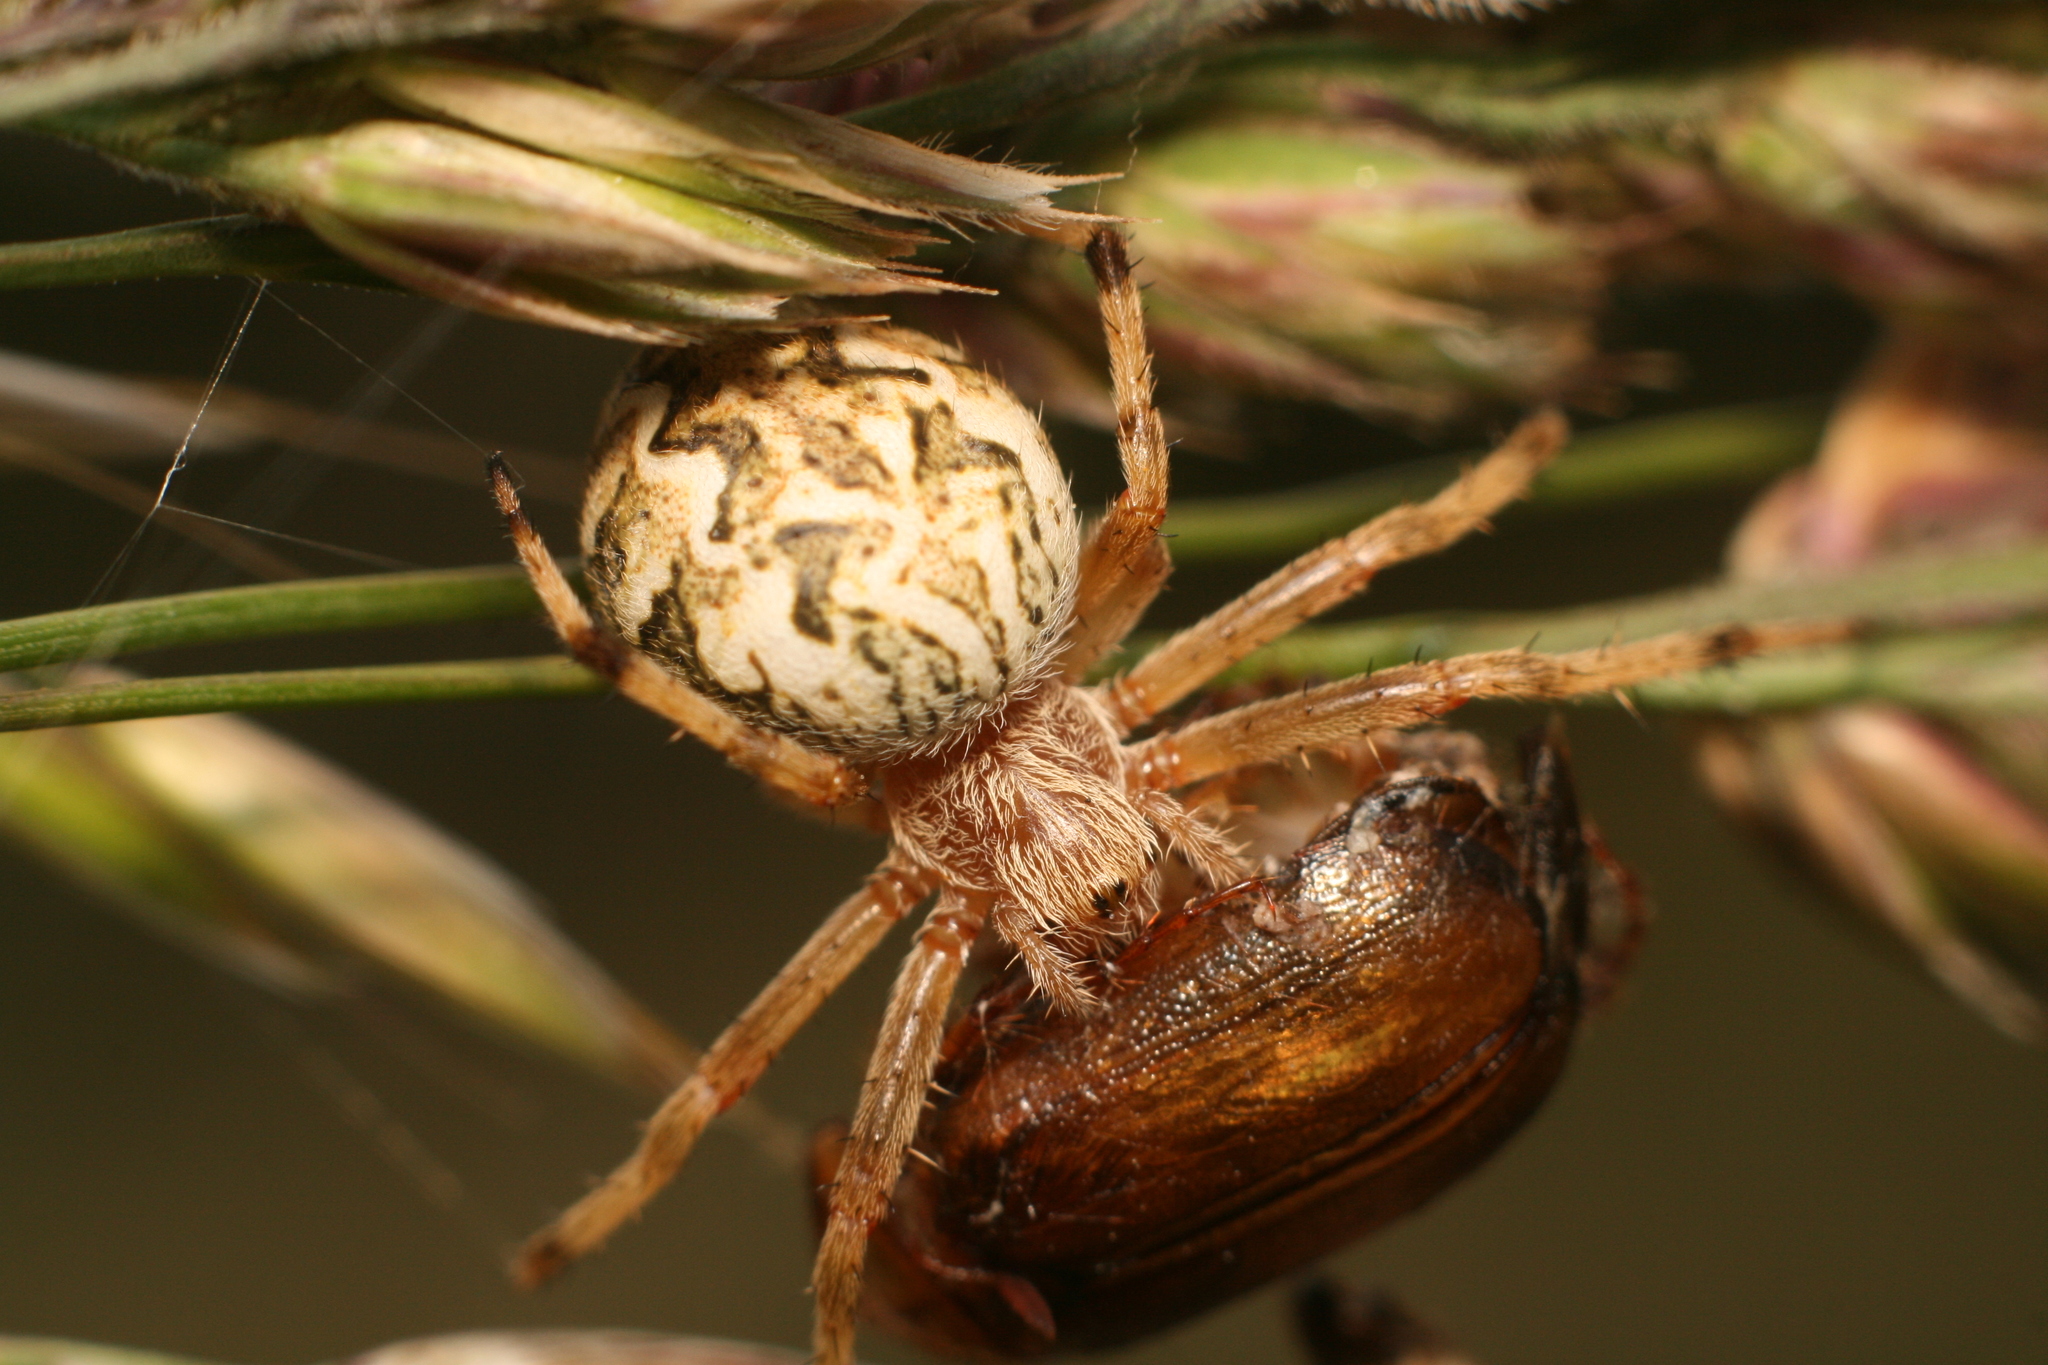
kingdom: Animalia
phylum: Arthropoda
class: Arachnida
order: Araneae
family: Araneidae
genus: Salsa
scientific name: Salsa fuliginata
